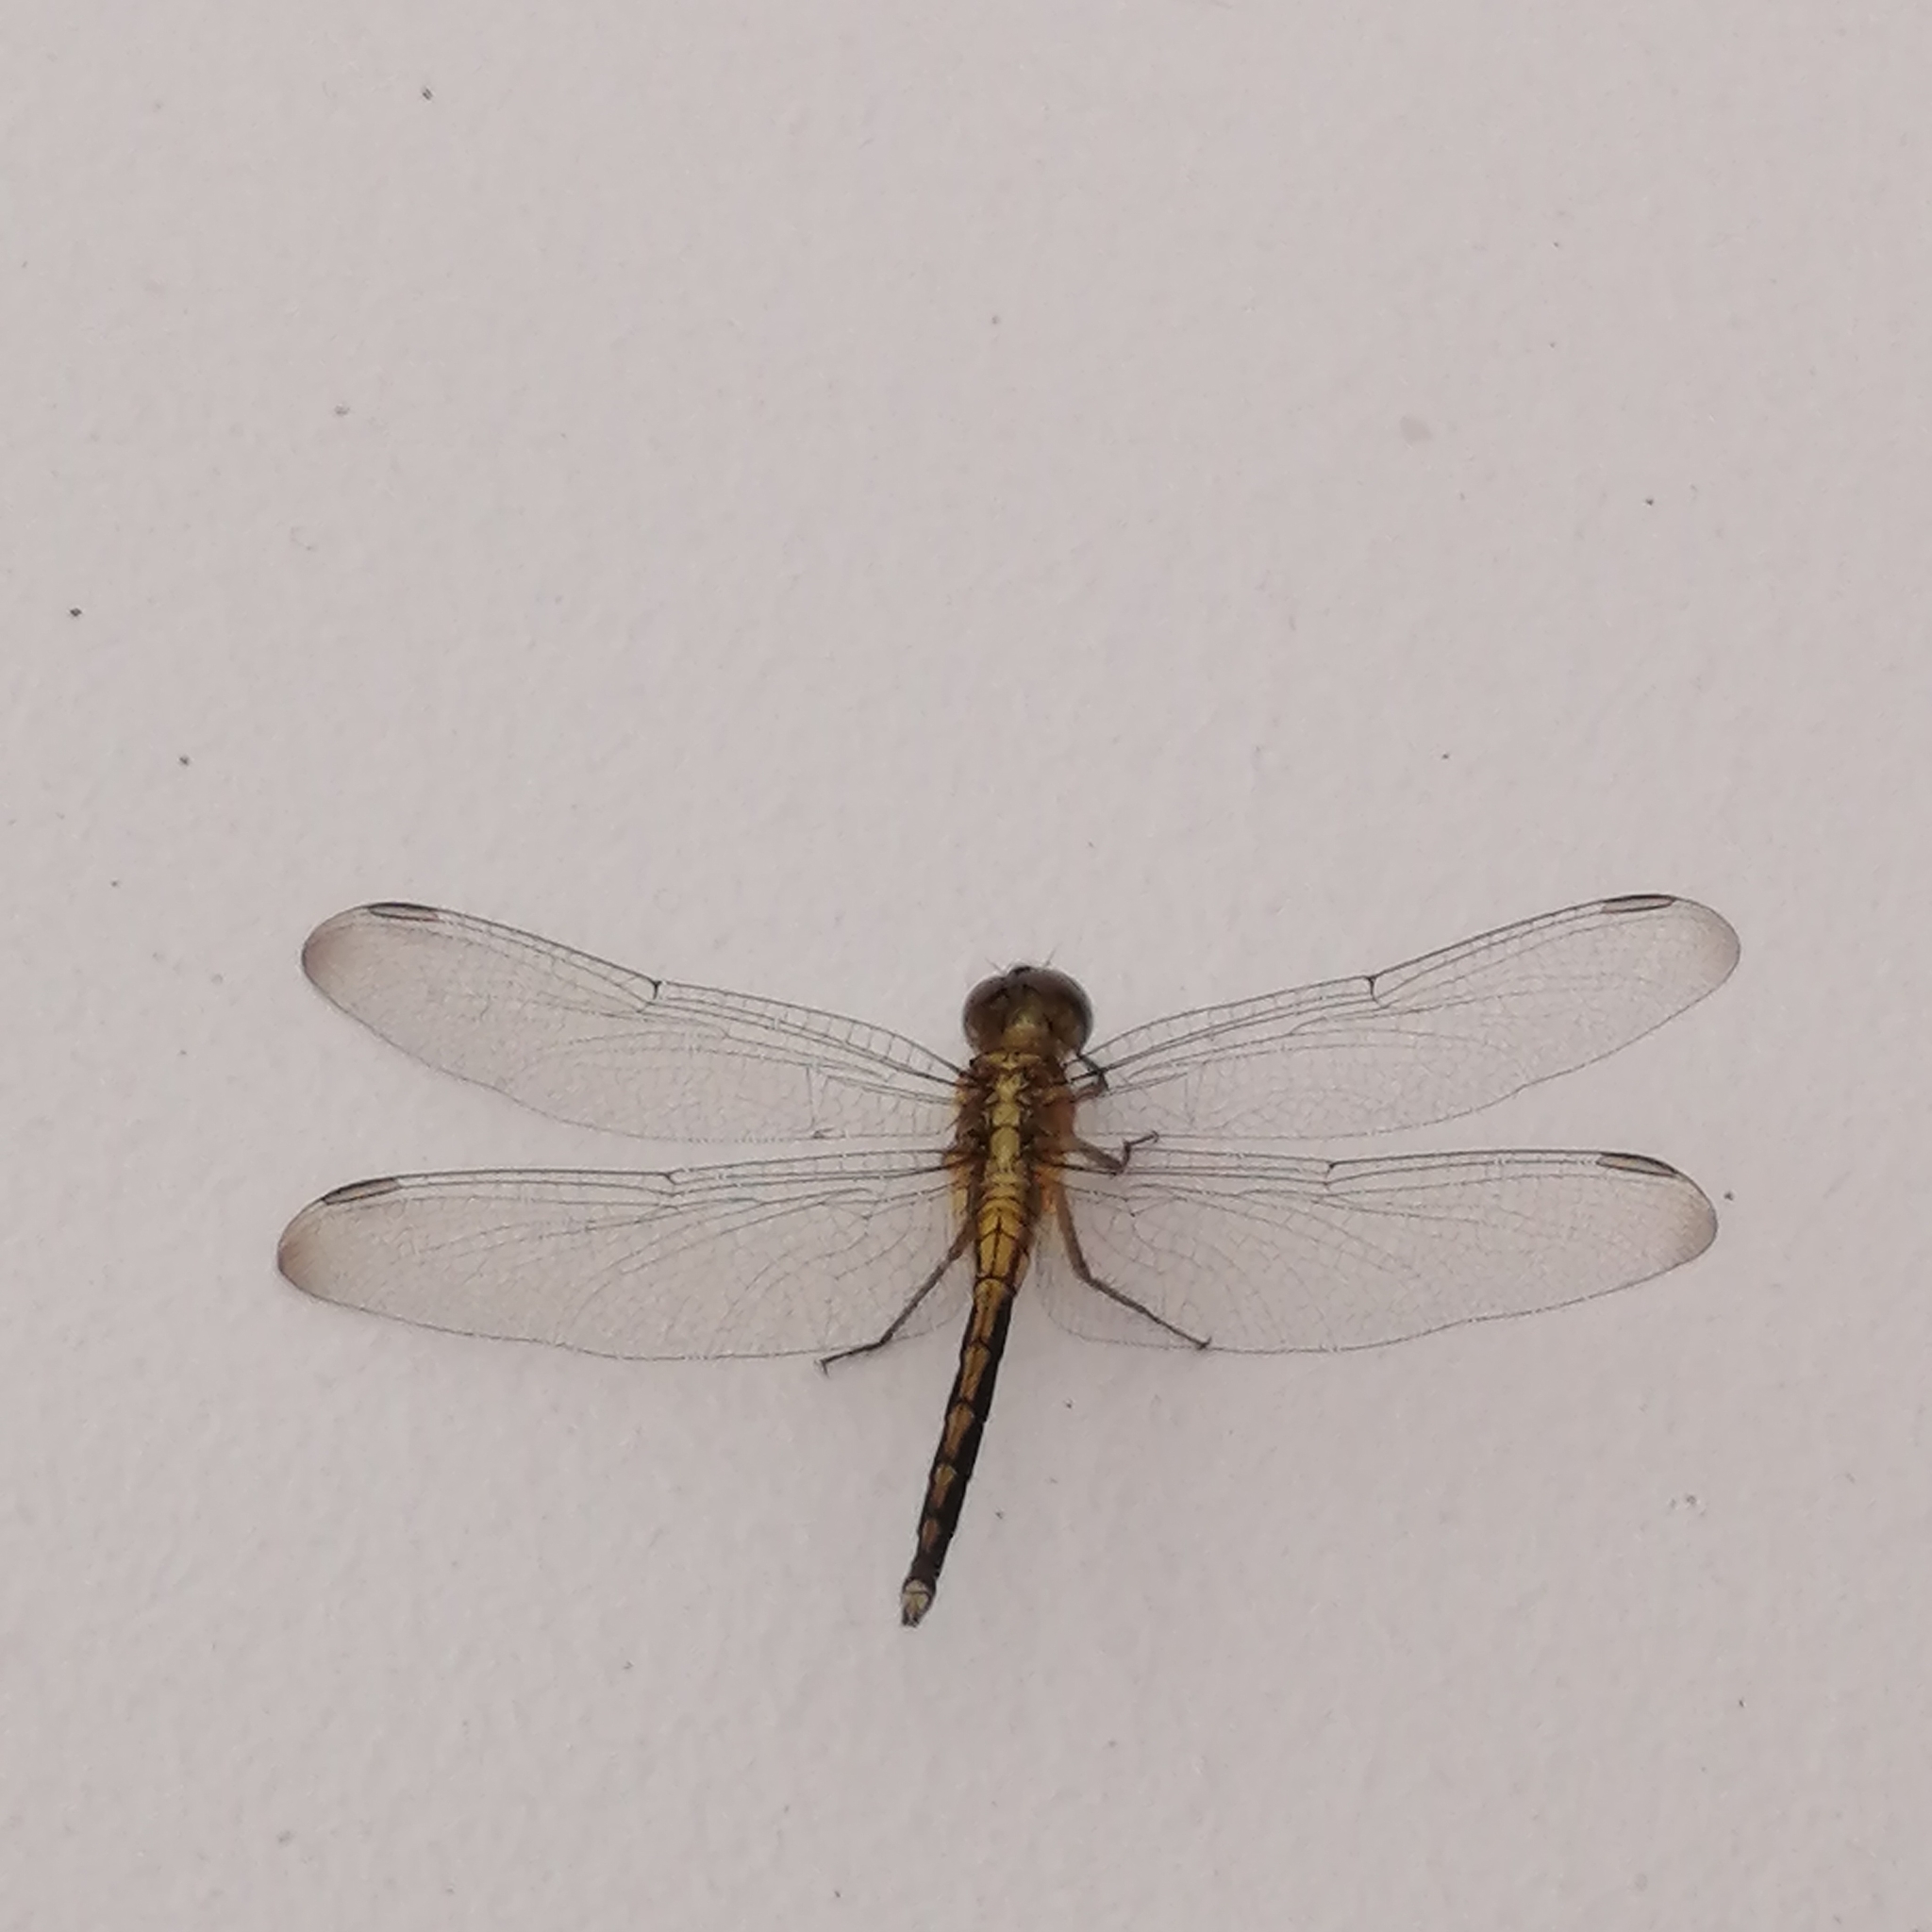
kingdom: Animalia
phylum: Arthropoda
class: Insecta
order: Odonata
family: Libellulidae
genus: Orthetrum
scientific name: Orthetrum luzonicum
